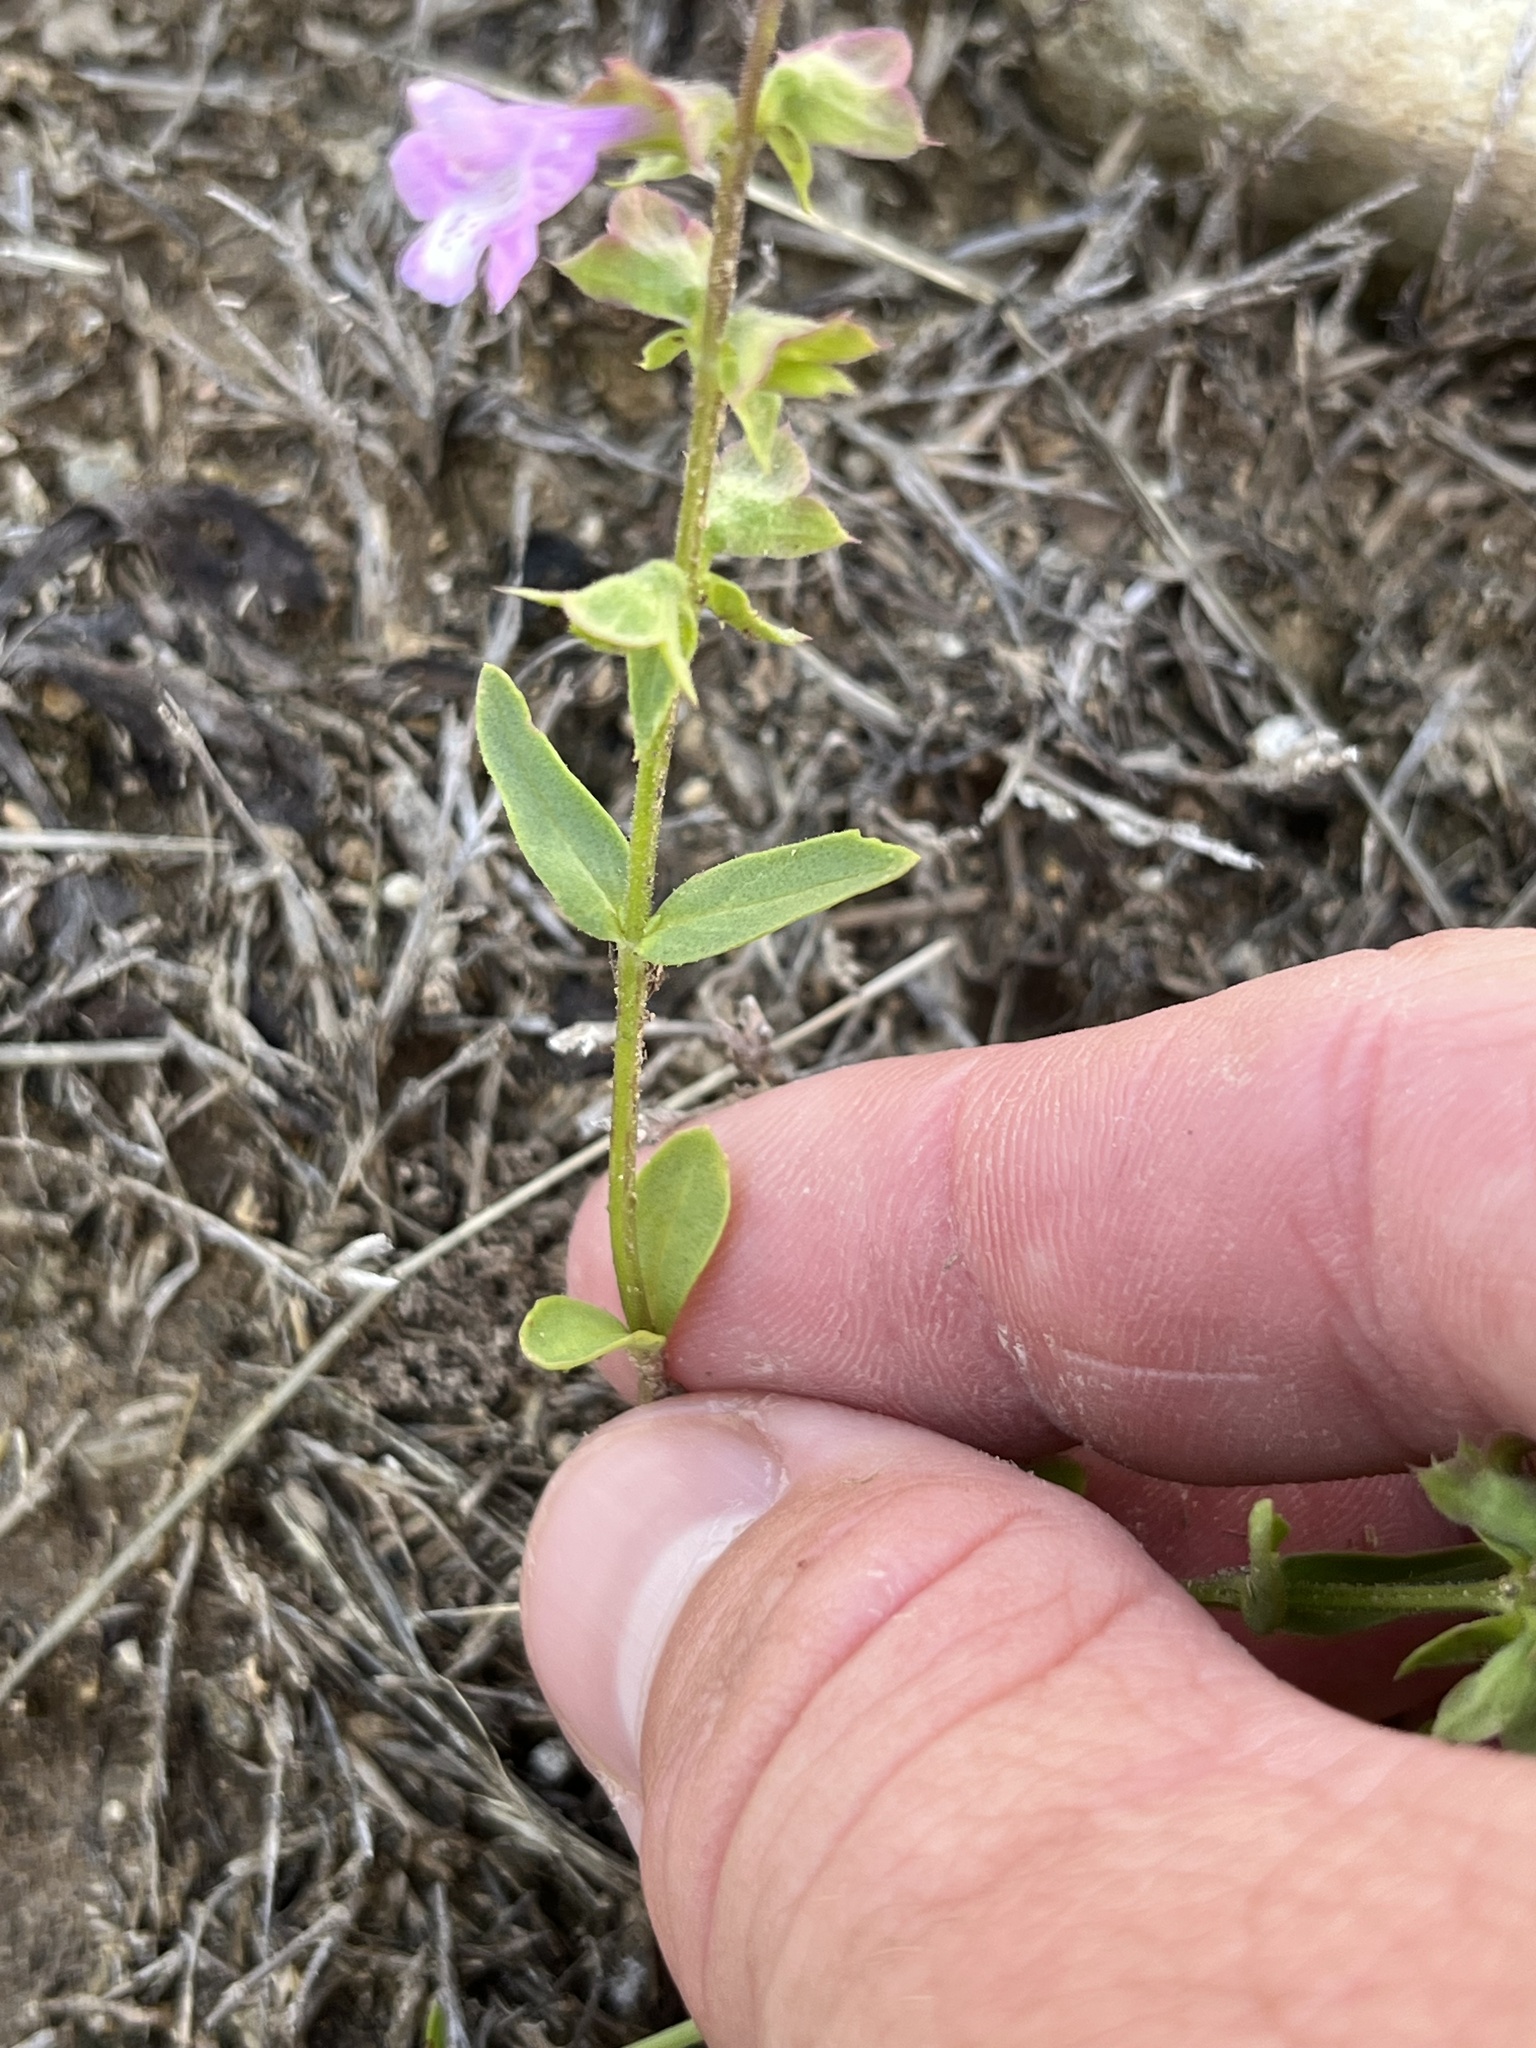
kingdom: Plantae
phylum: Tracheophyta
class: Magnoliopsida
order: Lamiales
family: Lamiaceae
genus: Warnockia
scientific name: Warnockia scutellarioides
